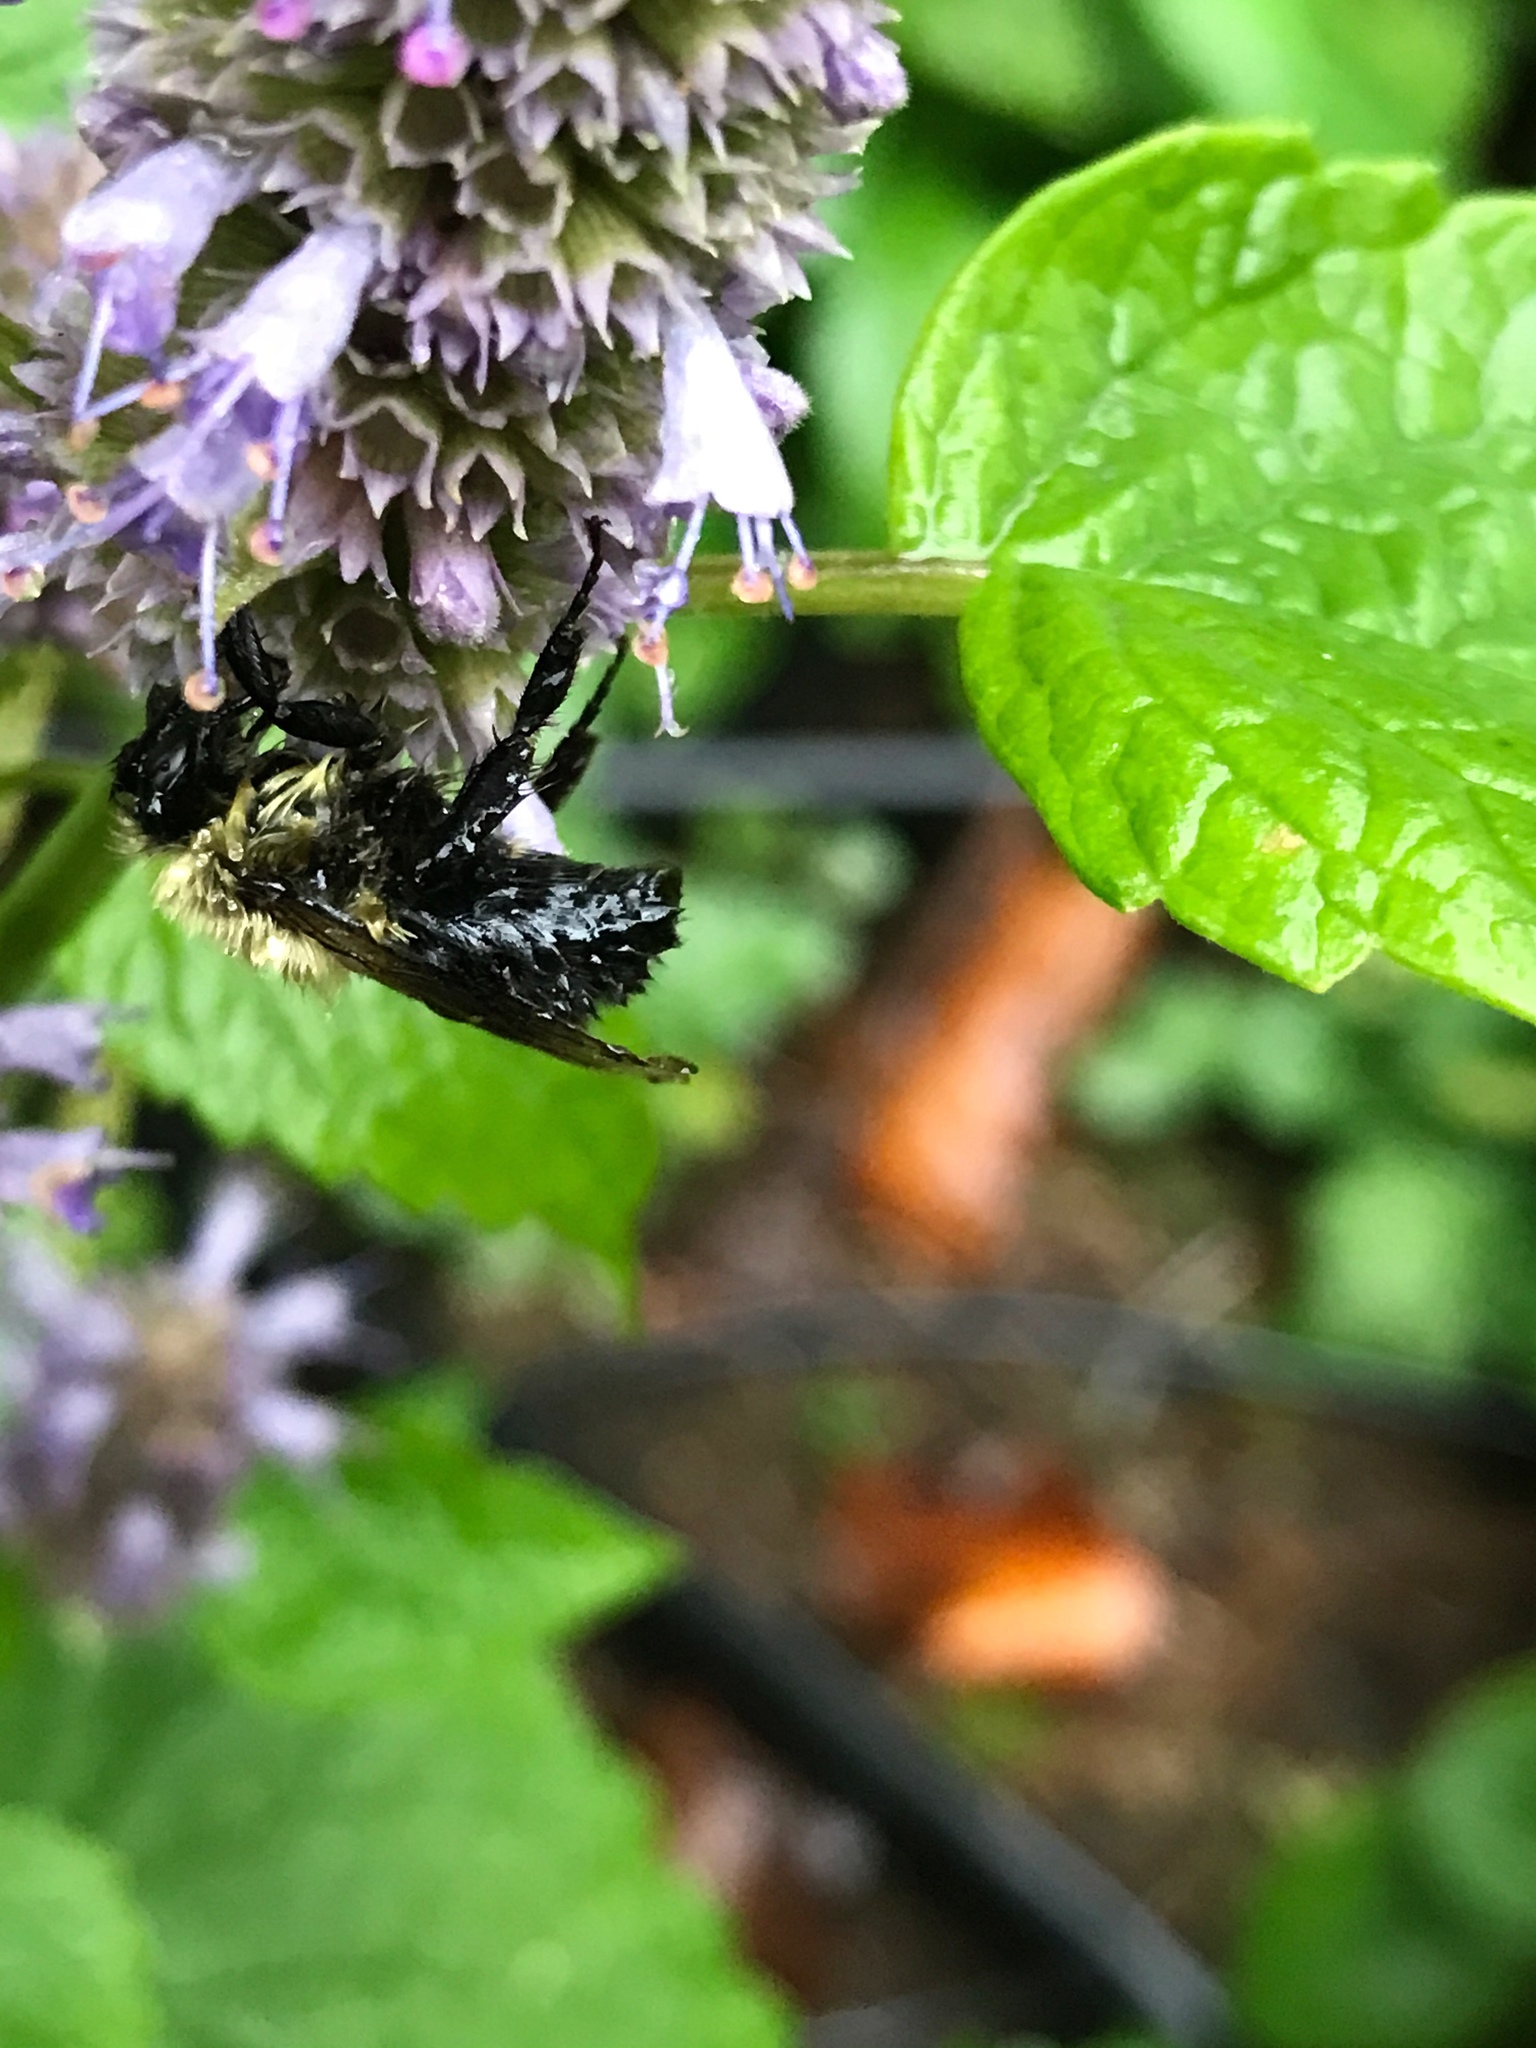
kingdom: Animalia
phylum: Arthropoda
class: Insecta
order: Hymenoptera
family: Apidae
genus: Bombus
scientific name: Bombus impatiens
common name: Common eastern bumble bee
